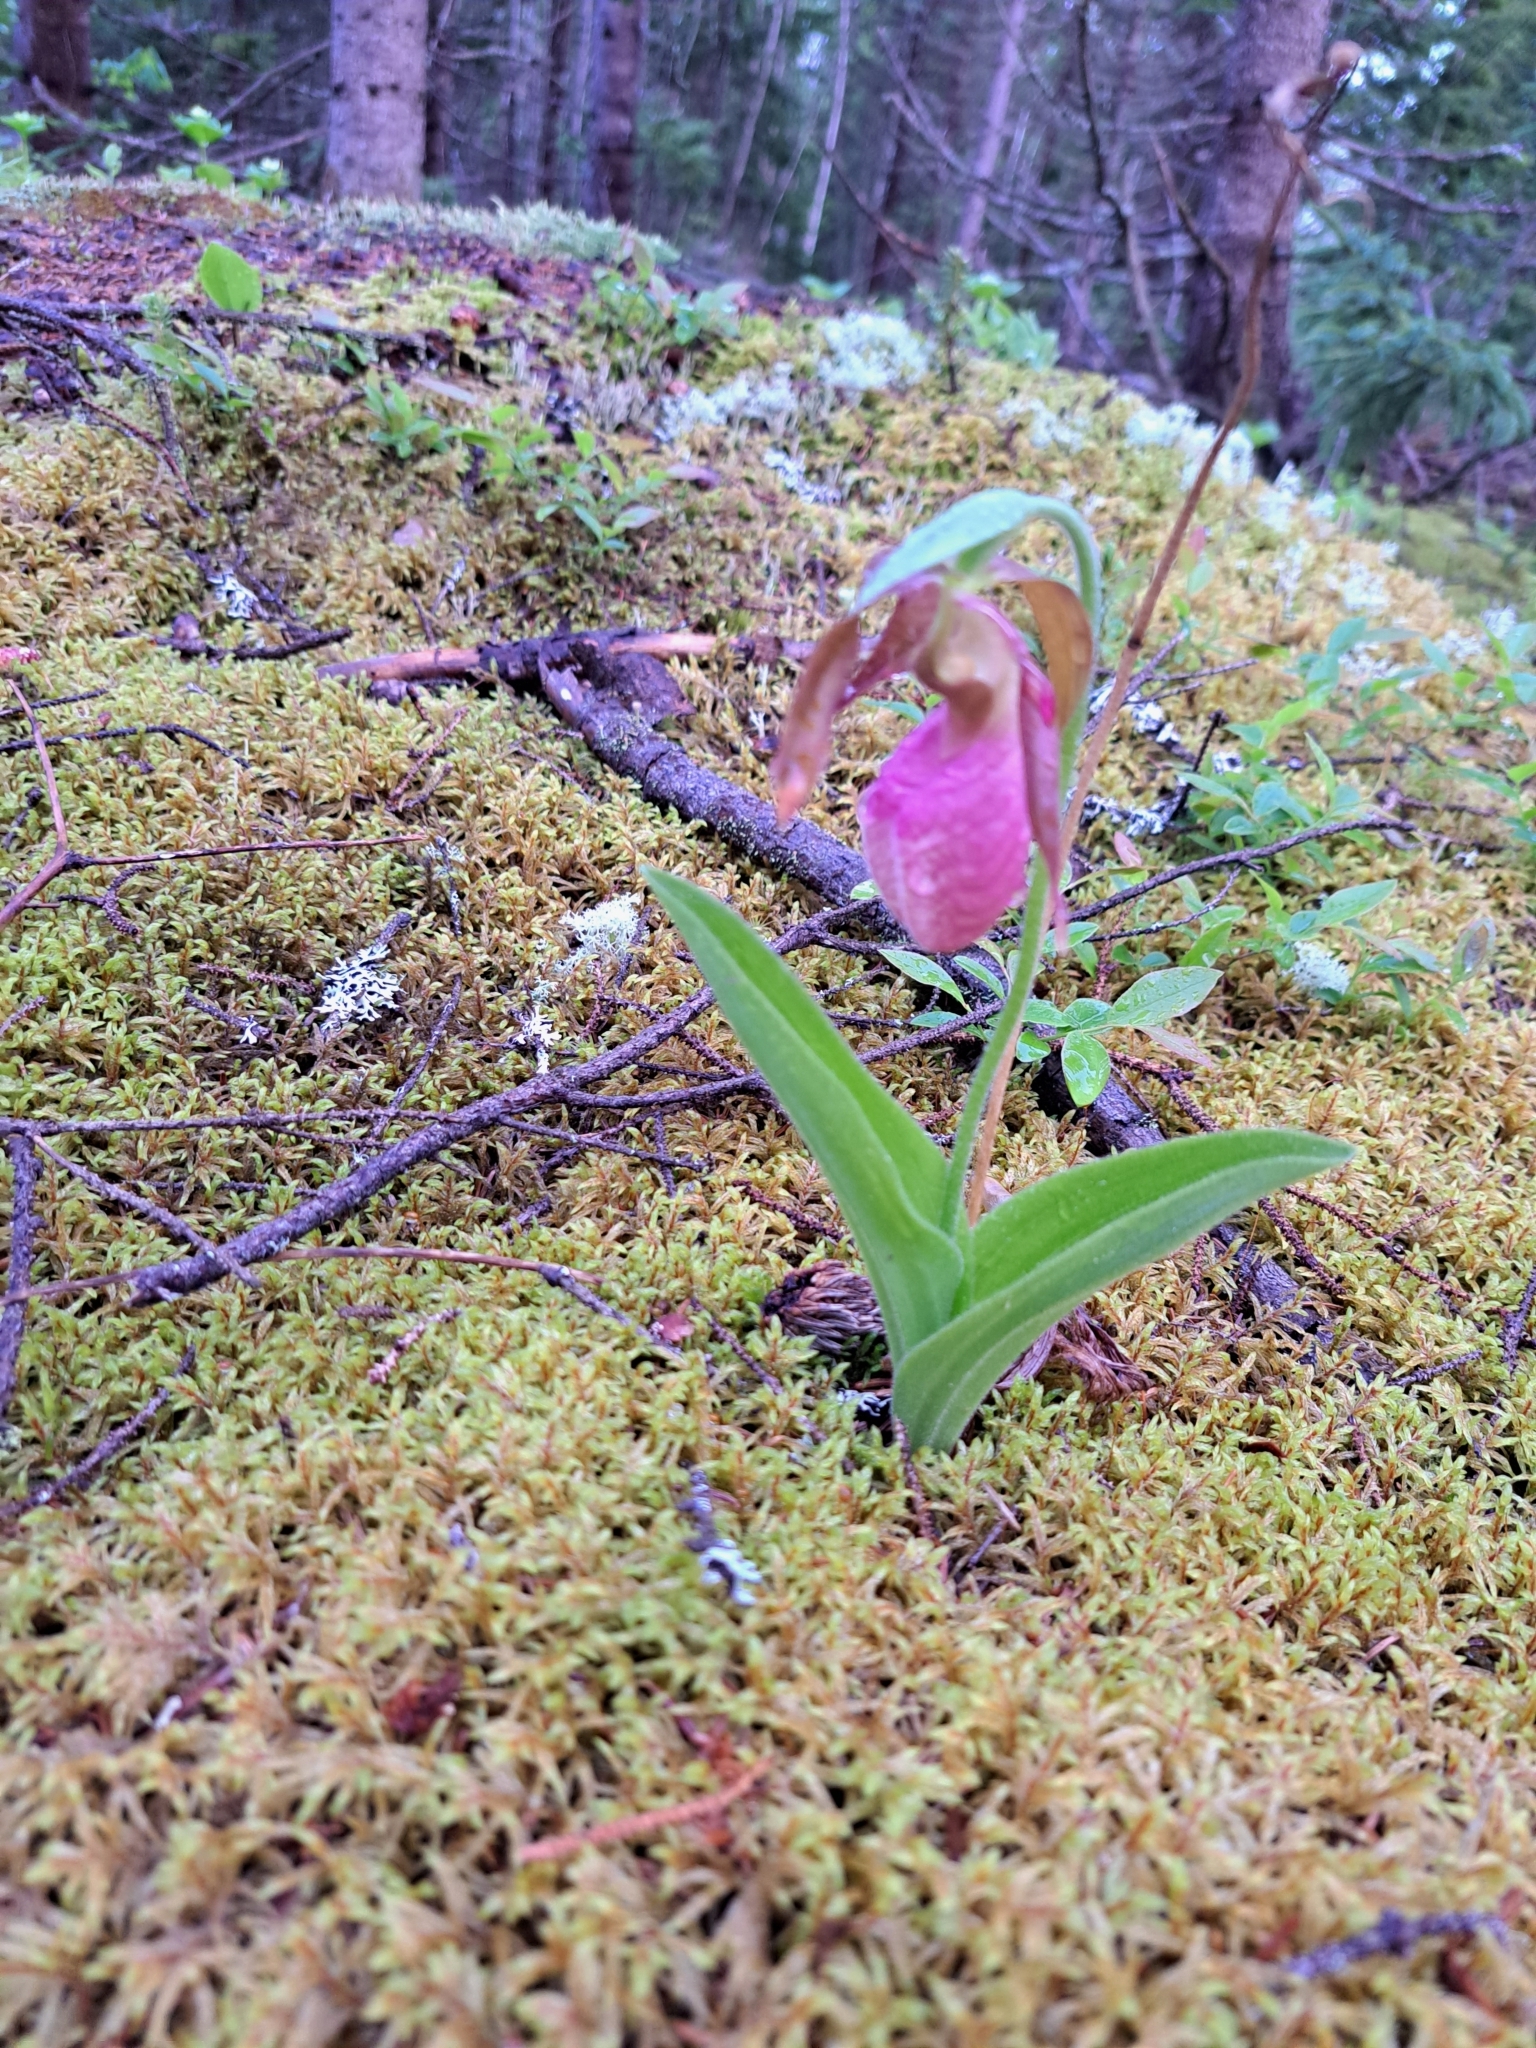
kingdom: Plantae
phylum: Tracheophyta
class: Liliopsida
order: Asparagales
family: Orchidaceae
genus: Cypripedium
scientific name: Cypripedium acaule
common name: Pink lady's-slipper
